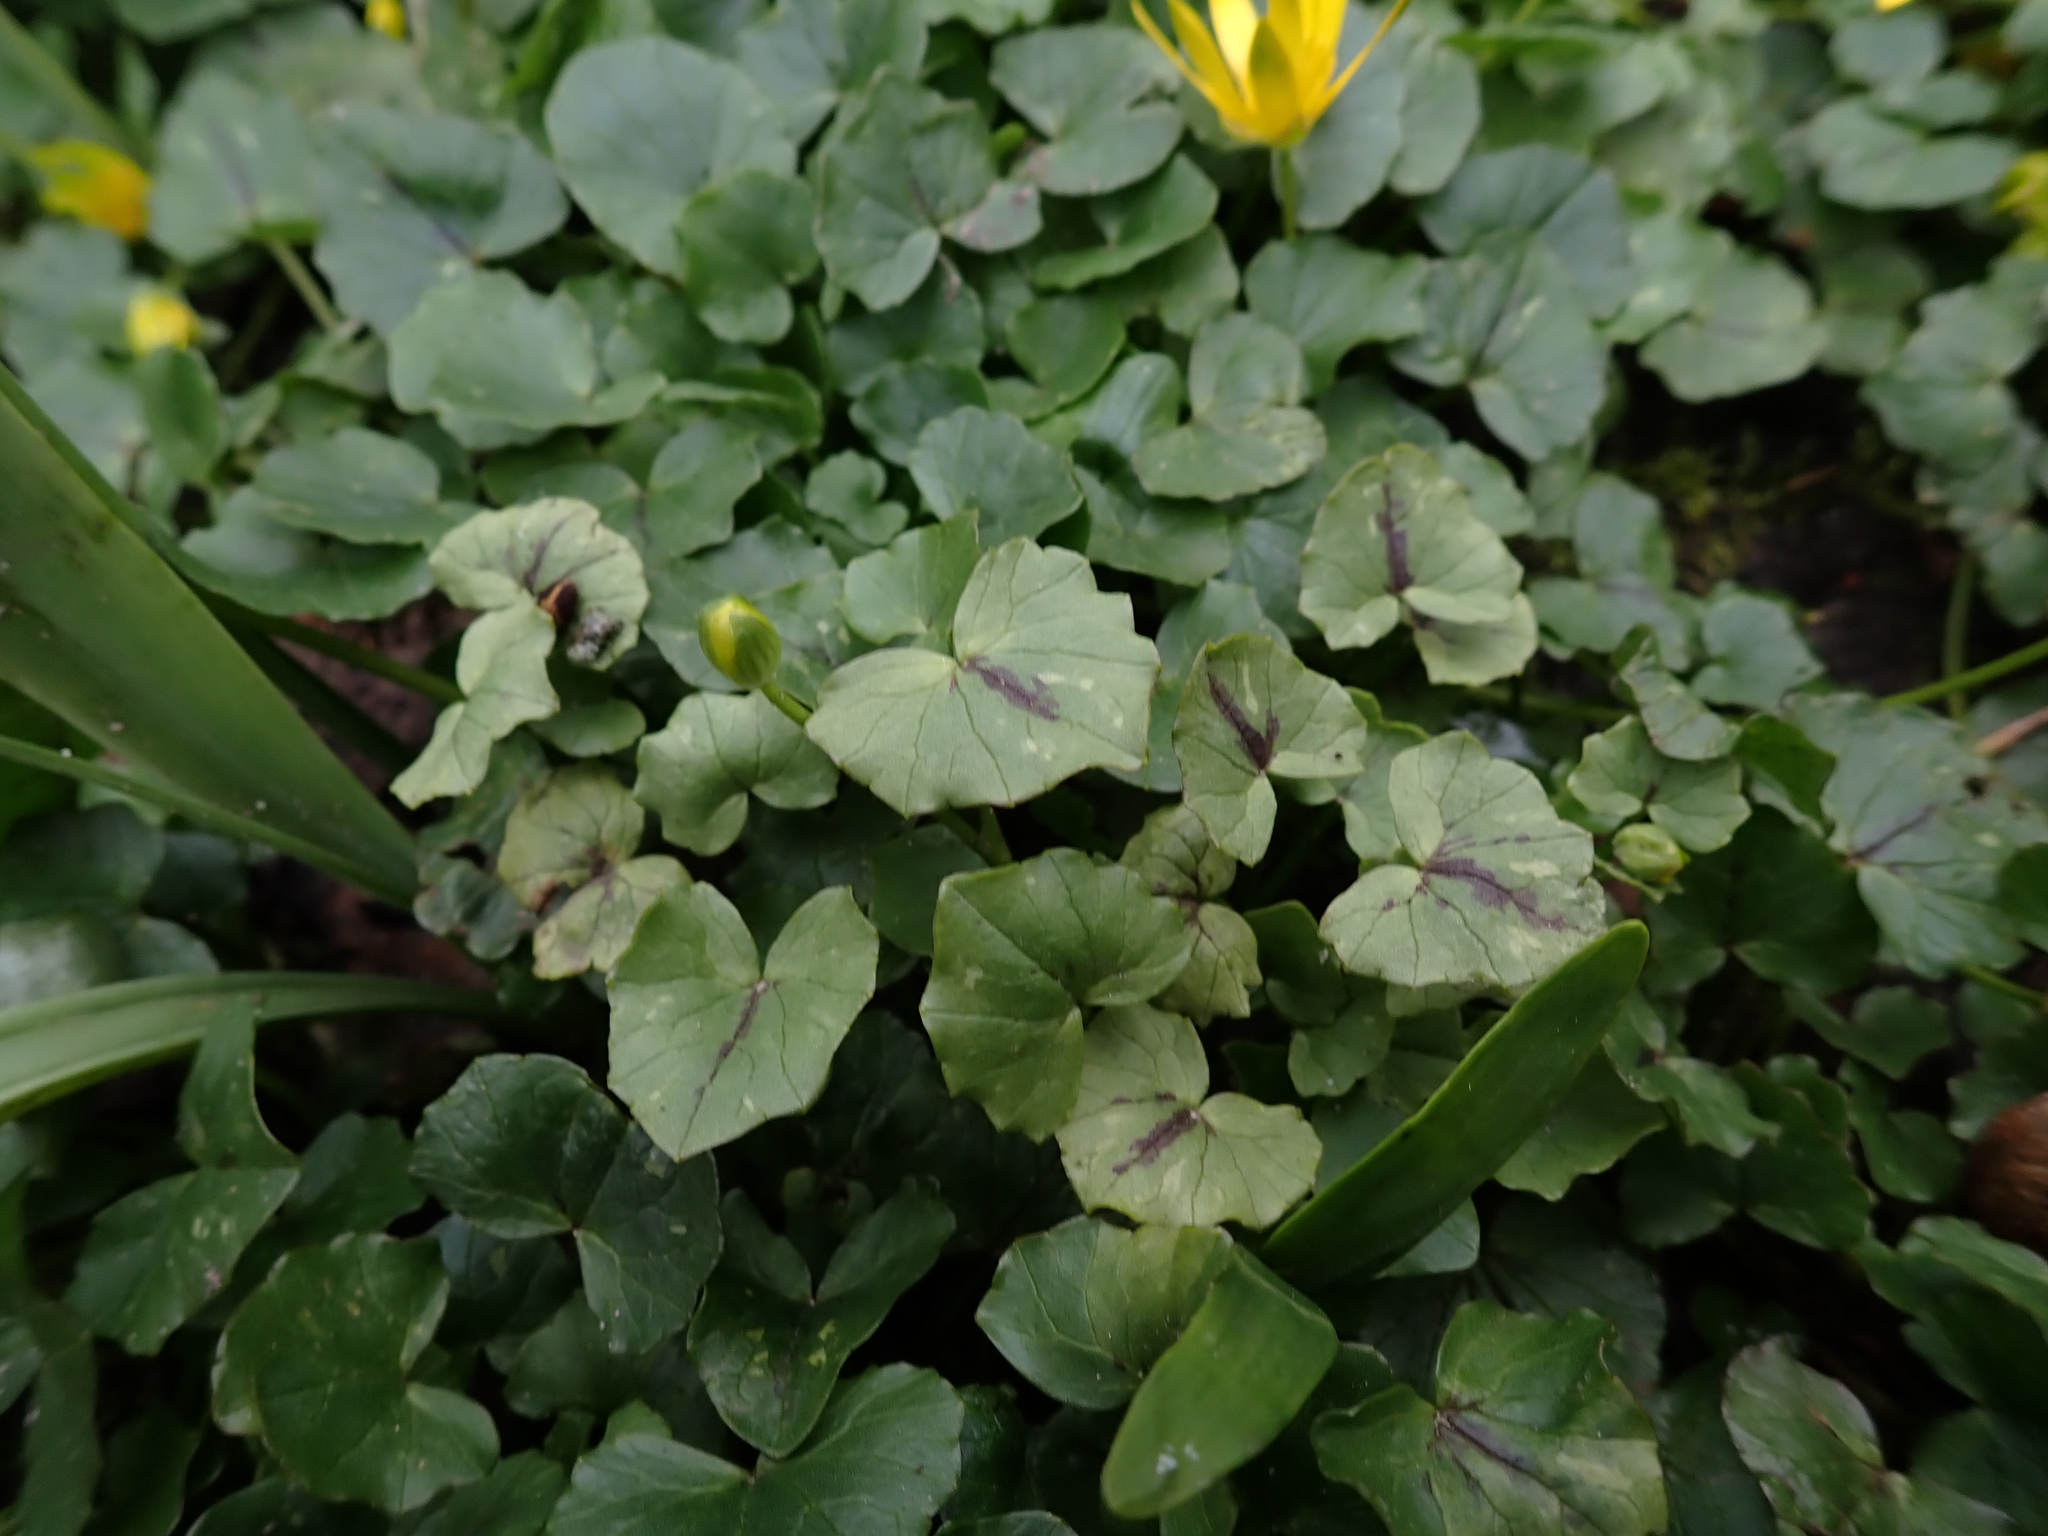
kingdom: Chromista
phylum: Oomycota
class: Peronosporea
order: Peronosporales
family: Peronosporaceae
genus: Peronospora
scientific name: Peronospora ficariae
